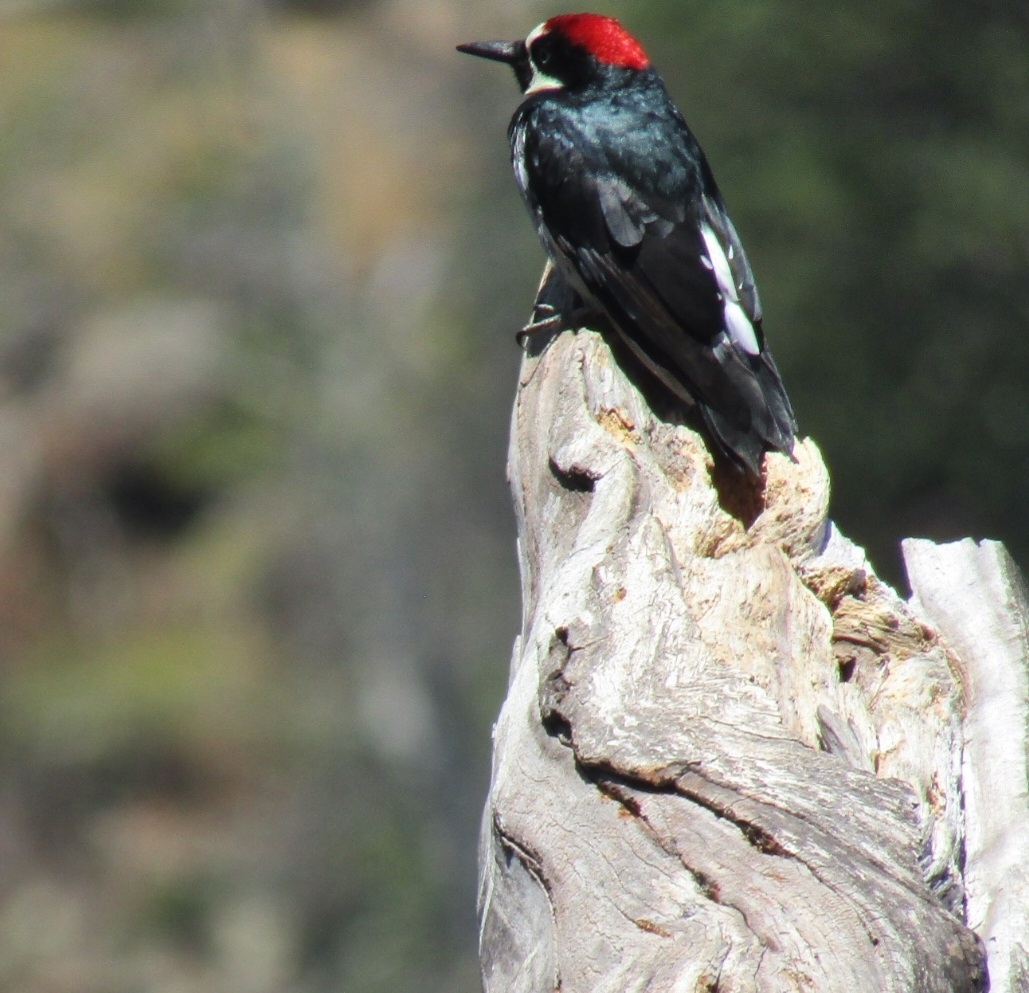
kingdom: Animalia
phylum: Chordata
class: Aves
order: Piciformes
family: Picidae
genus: Melanerpes
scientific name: Melanerpes formicivorus
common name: Acorn woodpecker
